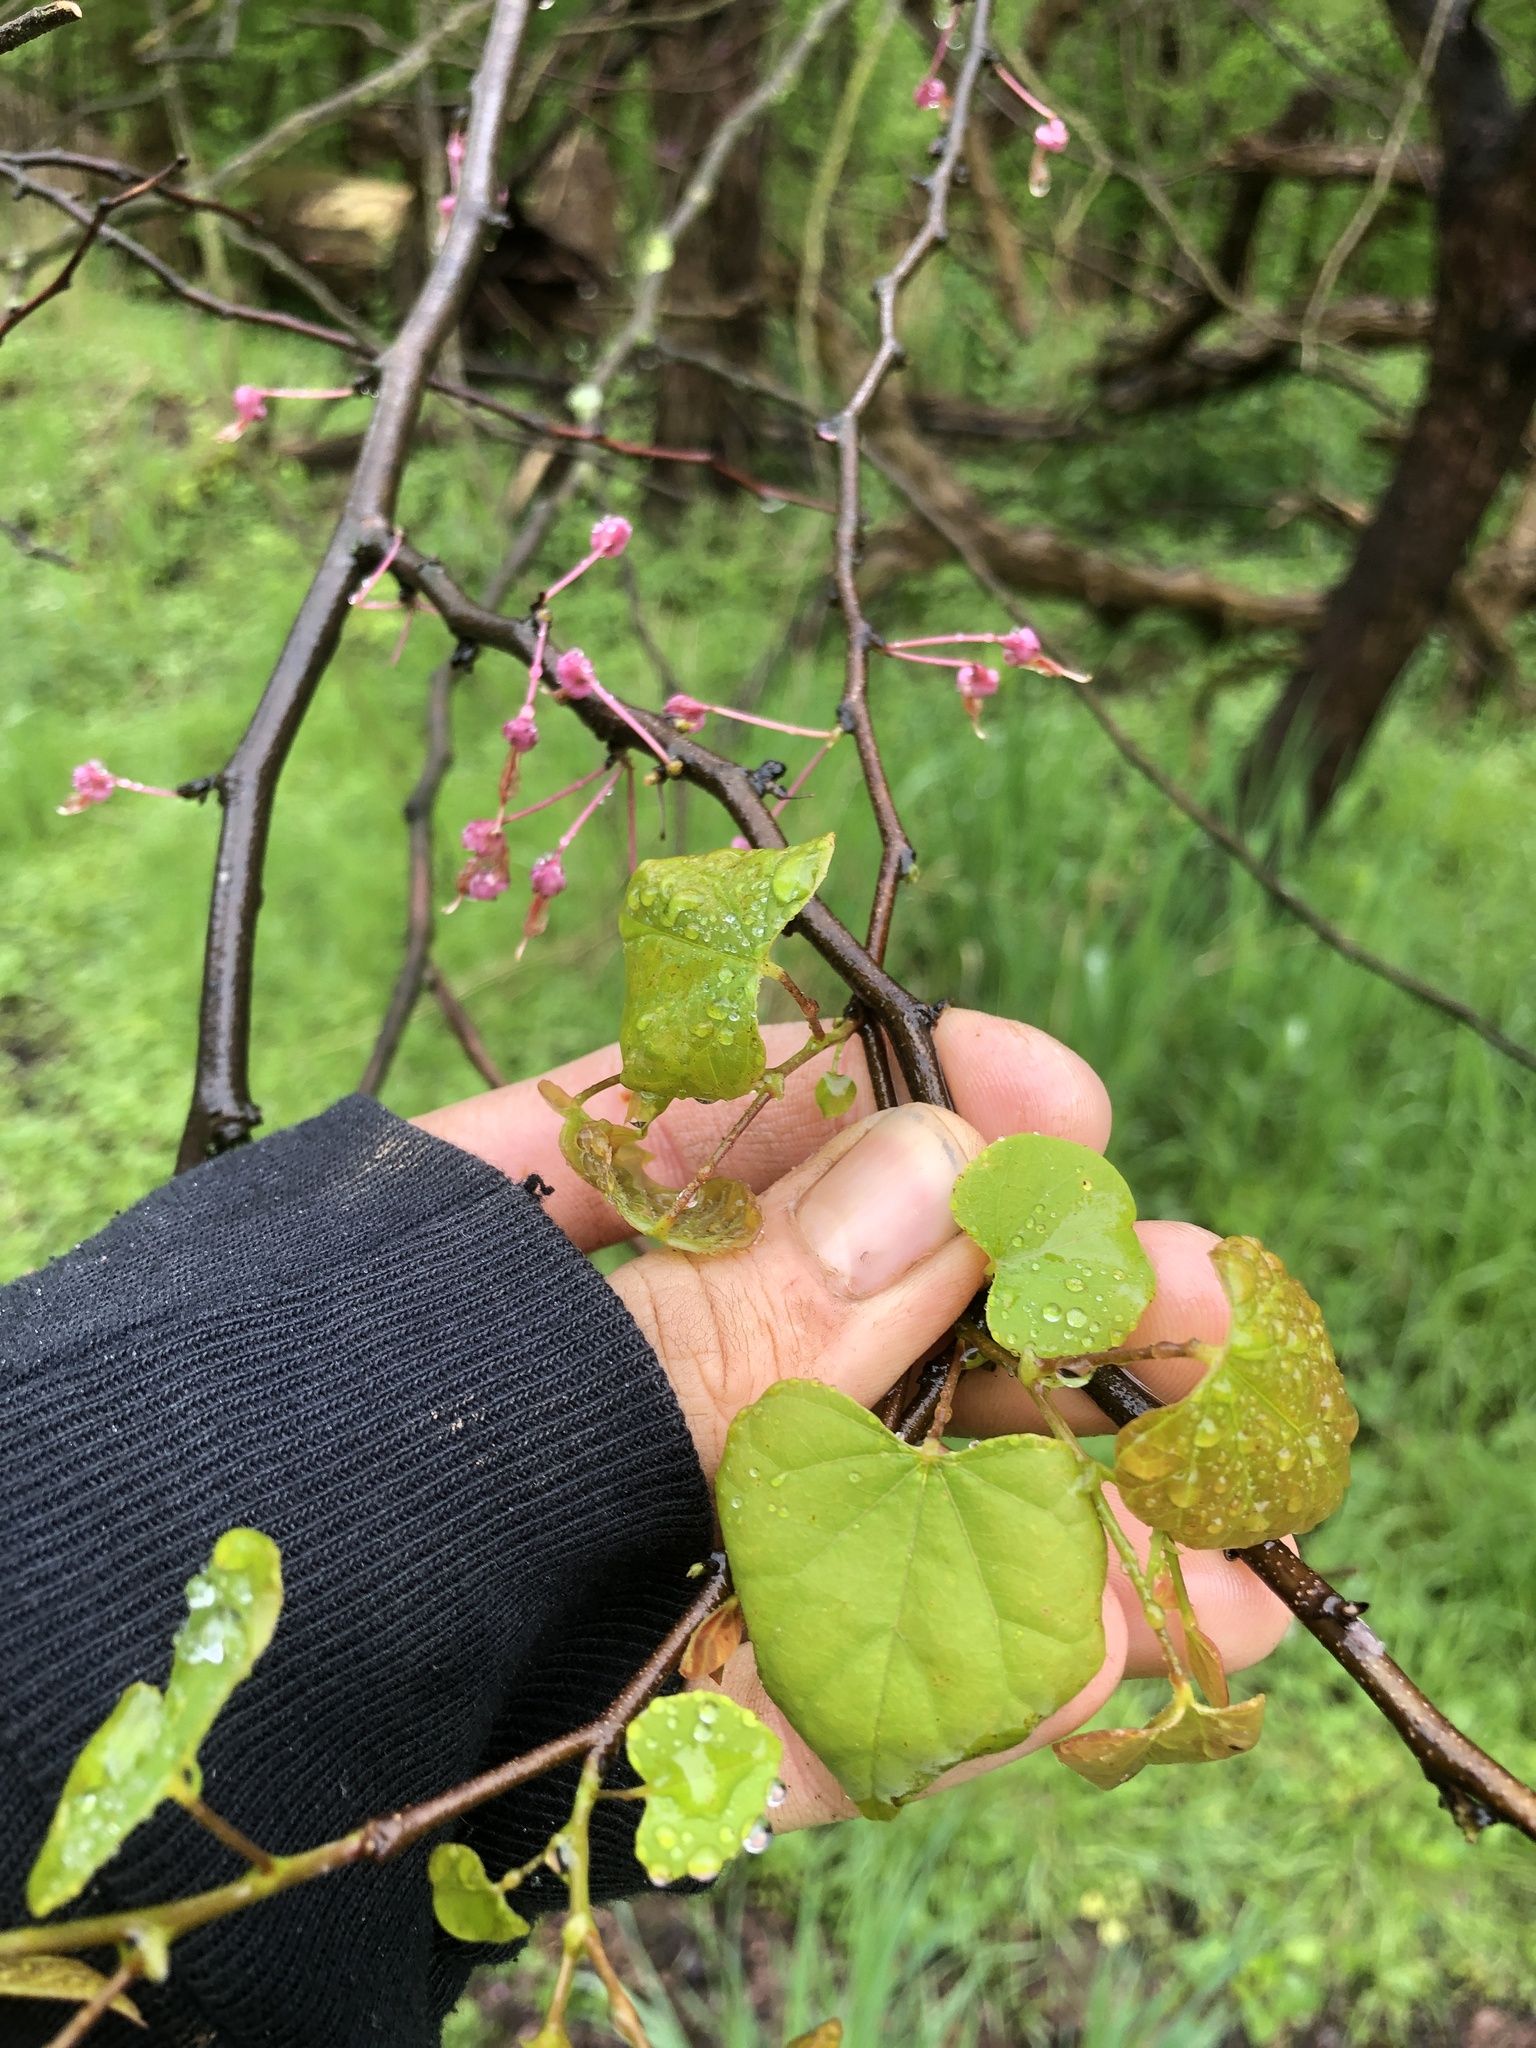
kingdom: Plantae
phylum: Tracheophyta
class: Magnoliopsida
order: Fabales
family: Fabaceae
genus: Cercis
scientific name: Cercis canadensis
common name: Eastern redbud
